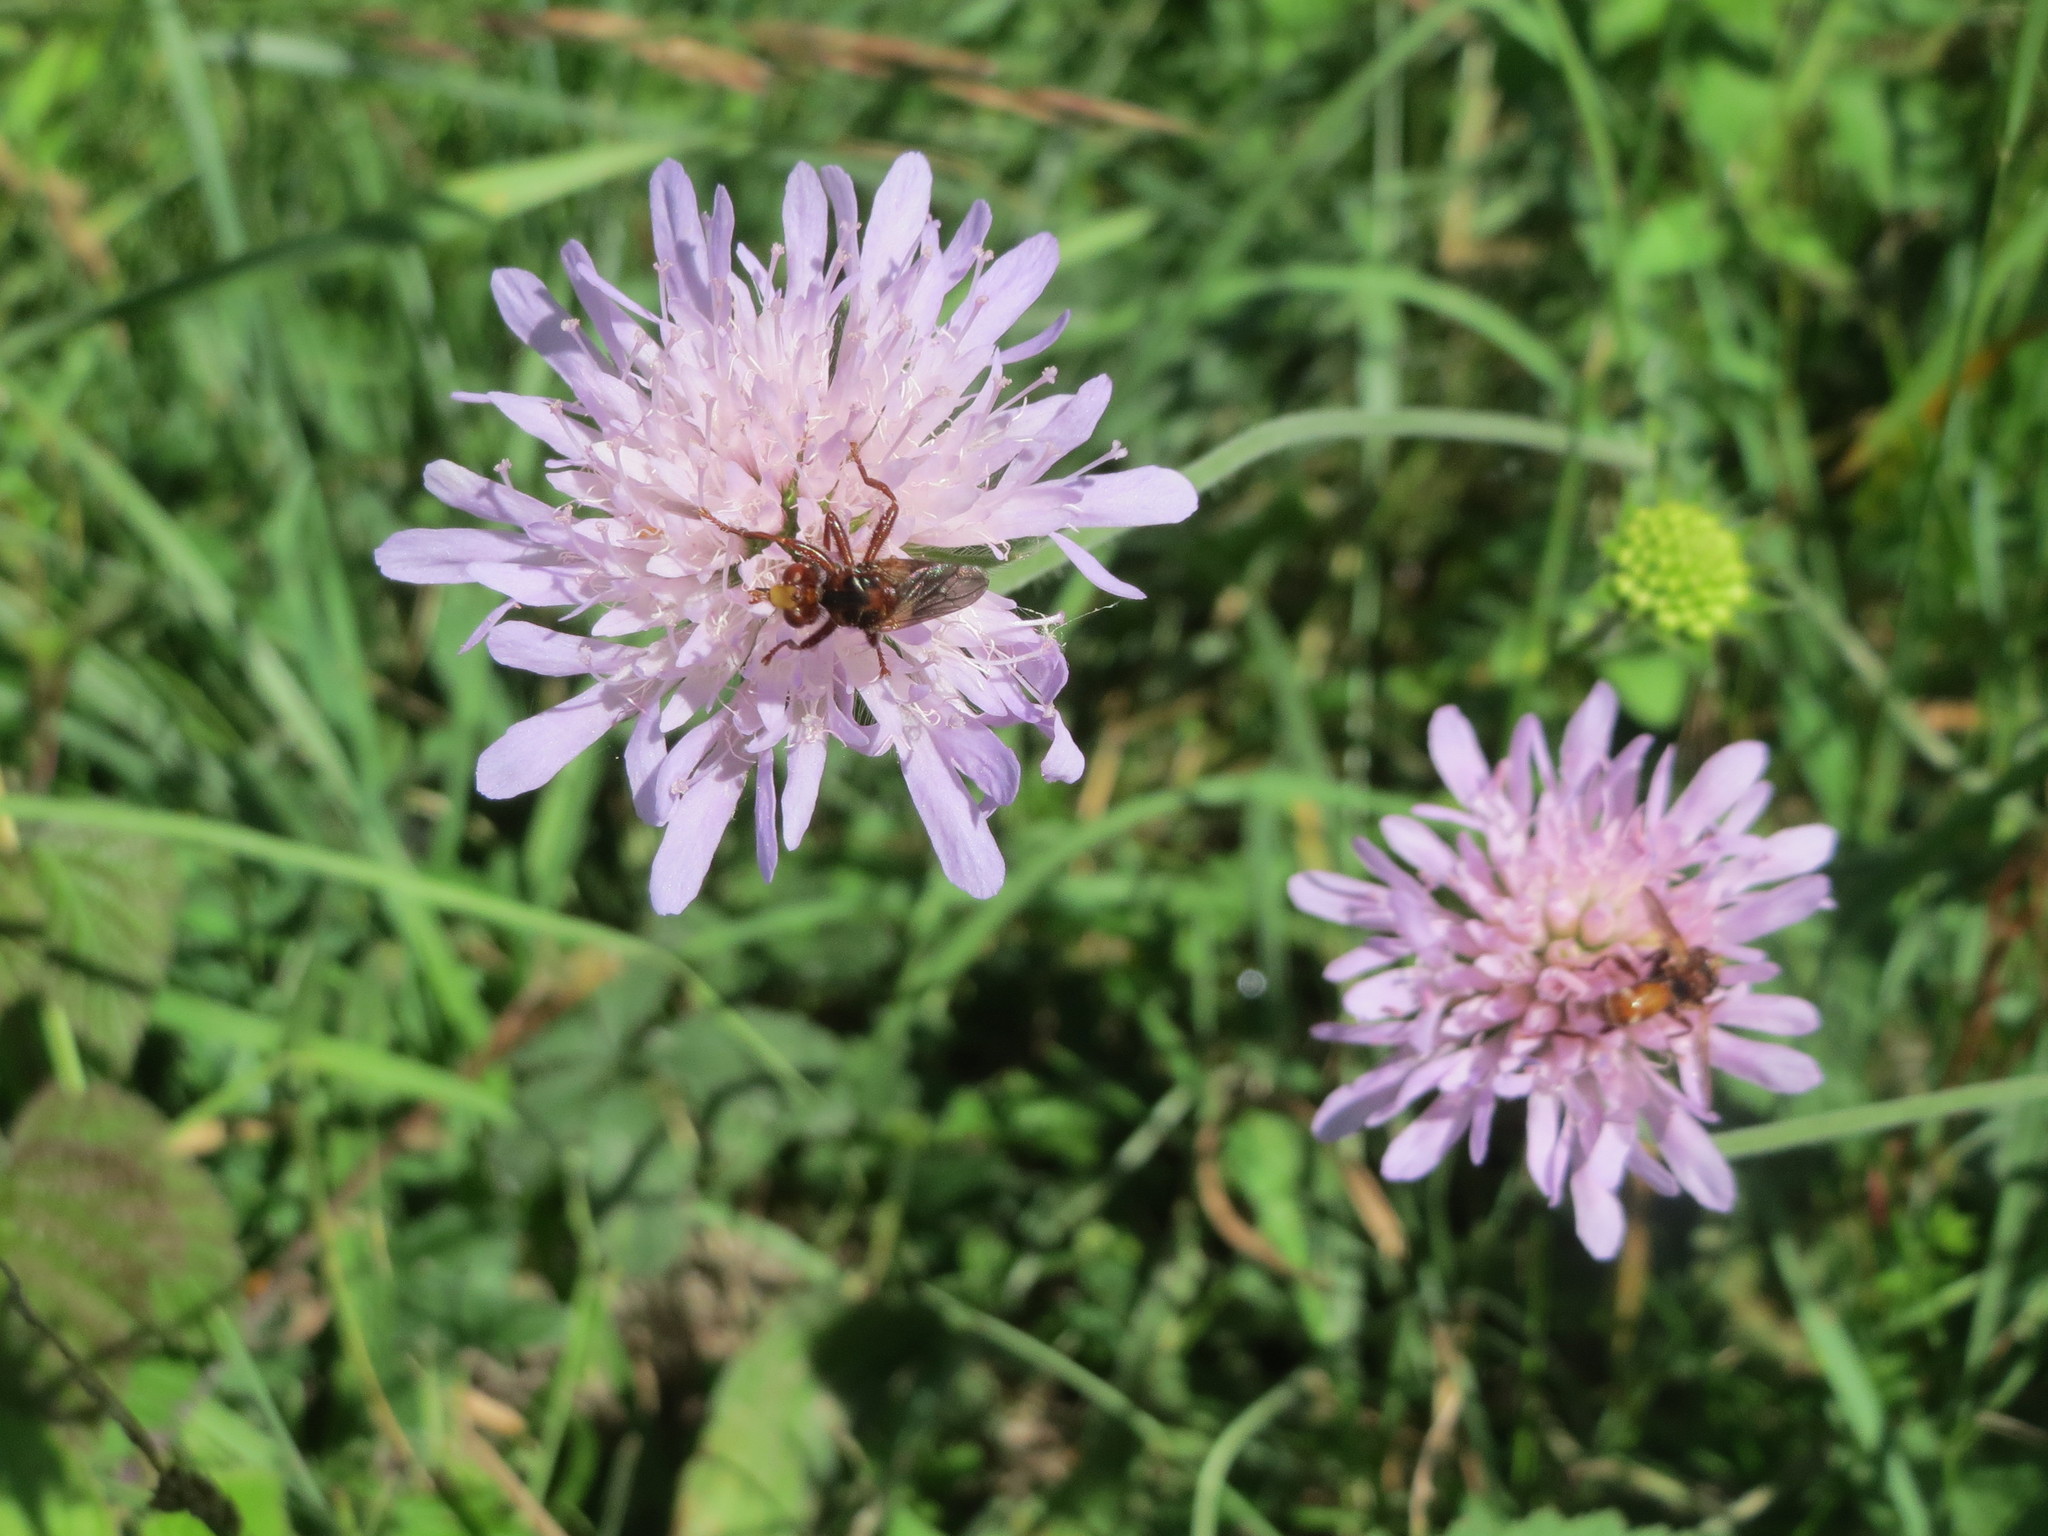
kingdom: Plantae
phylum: Tracheophyta
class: Magnoliopsida
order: Dipsacales
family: Caprifoliaceae
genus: Knautia
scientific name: Knautia arvensis
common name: Field scabiosa
